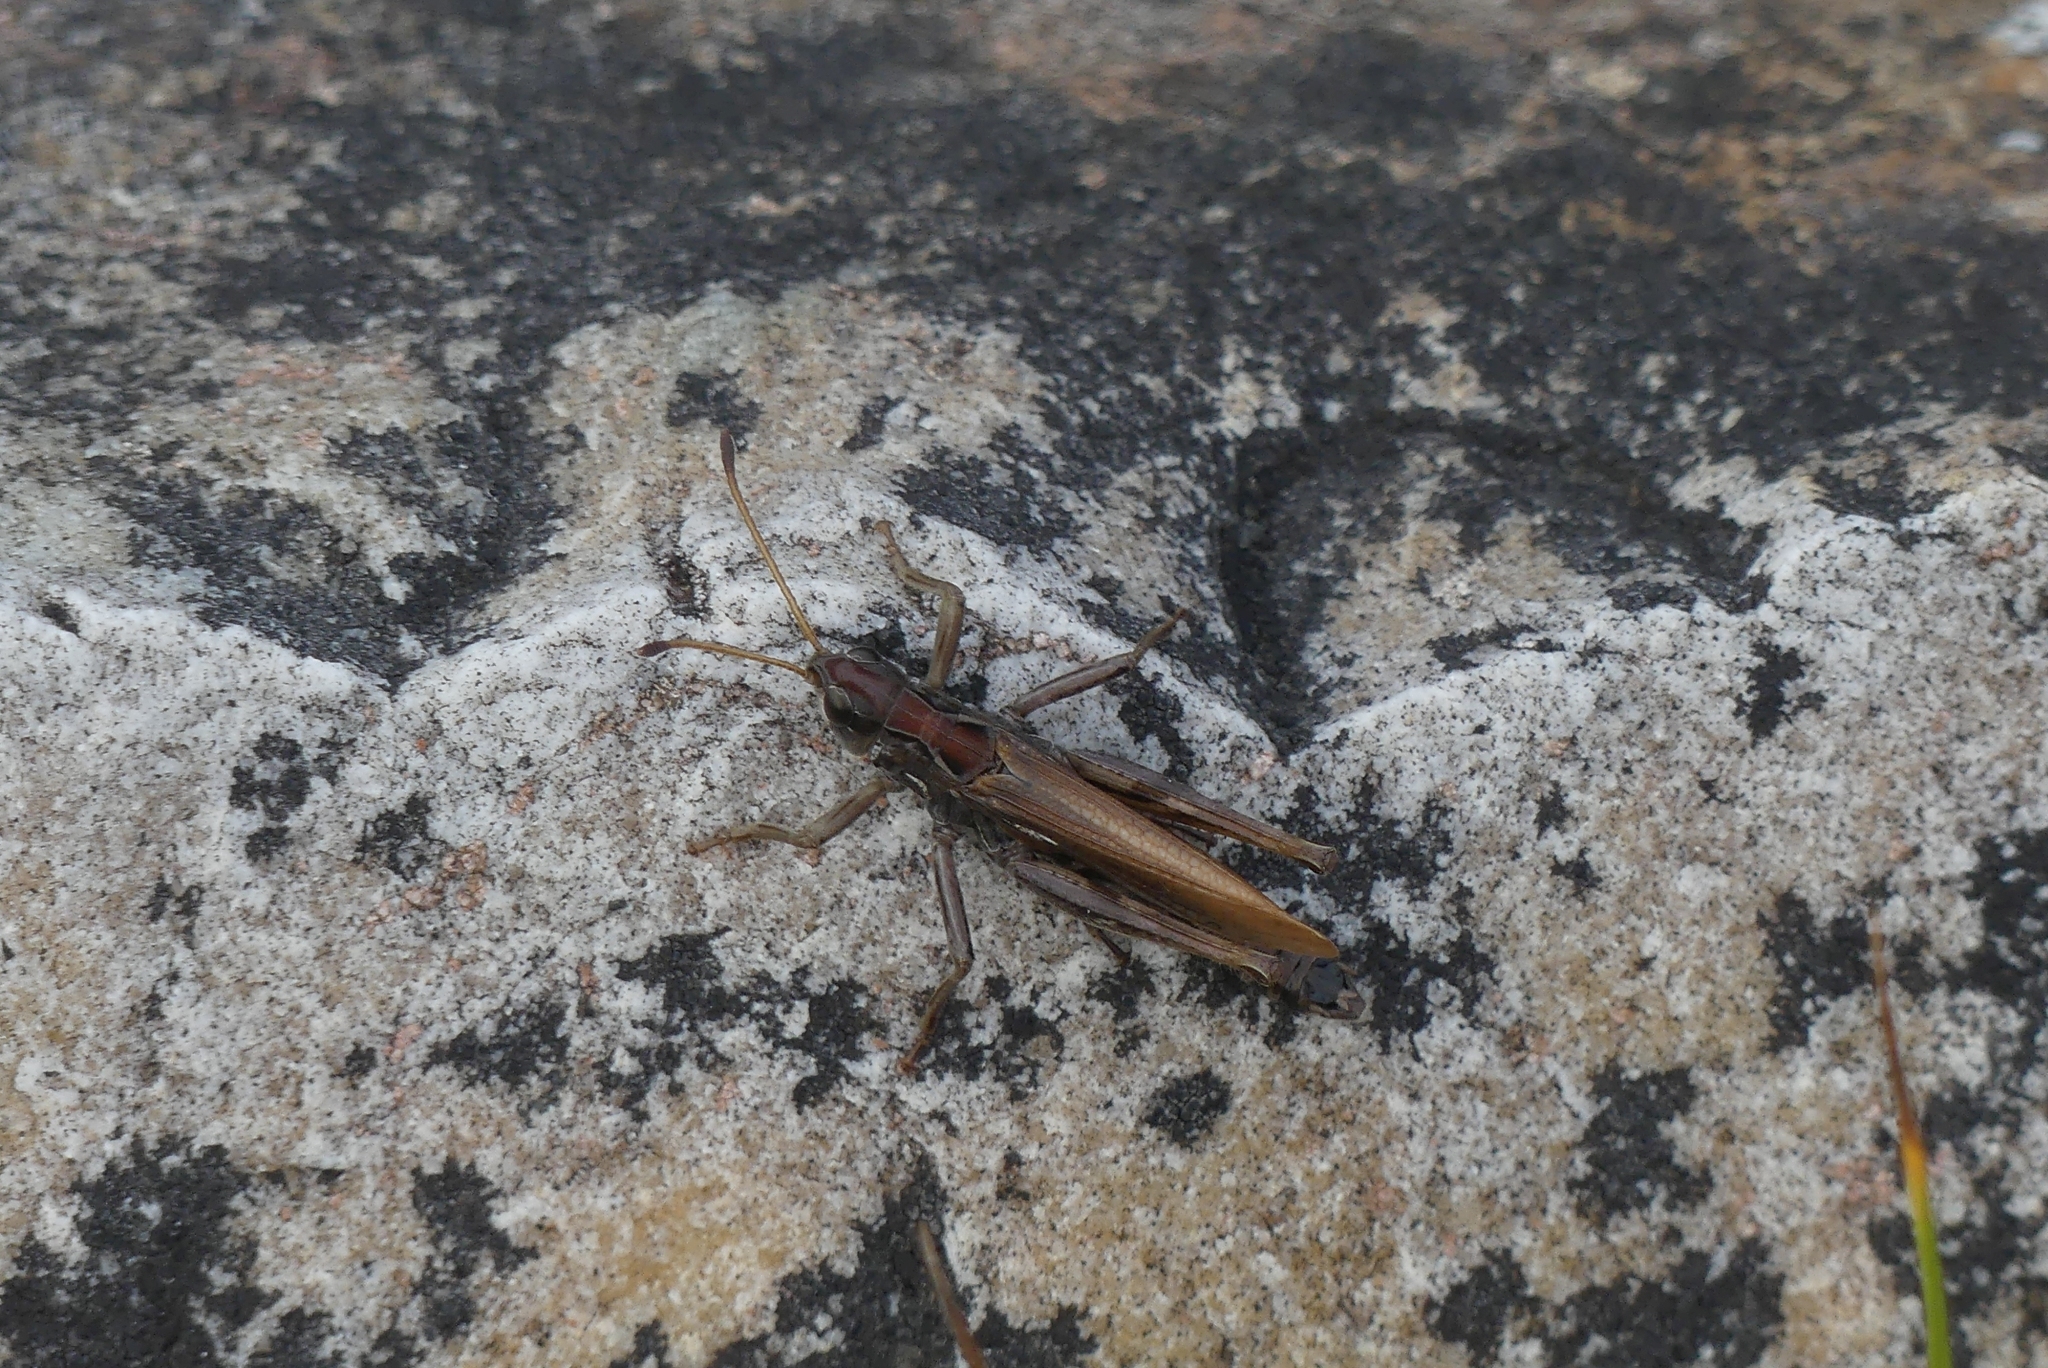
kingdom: Animalia
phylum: Arthropoda
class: Insecta
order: Orthoptera
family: Acrididae
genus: Aeropedellus
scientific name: Aeropedellus clavatus
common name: Clubhorned grasshopper
